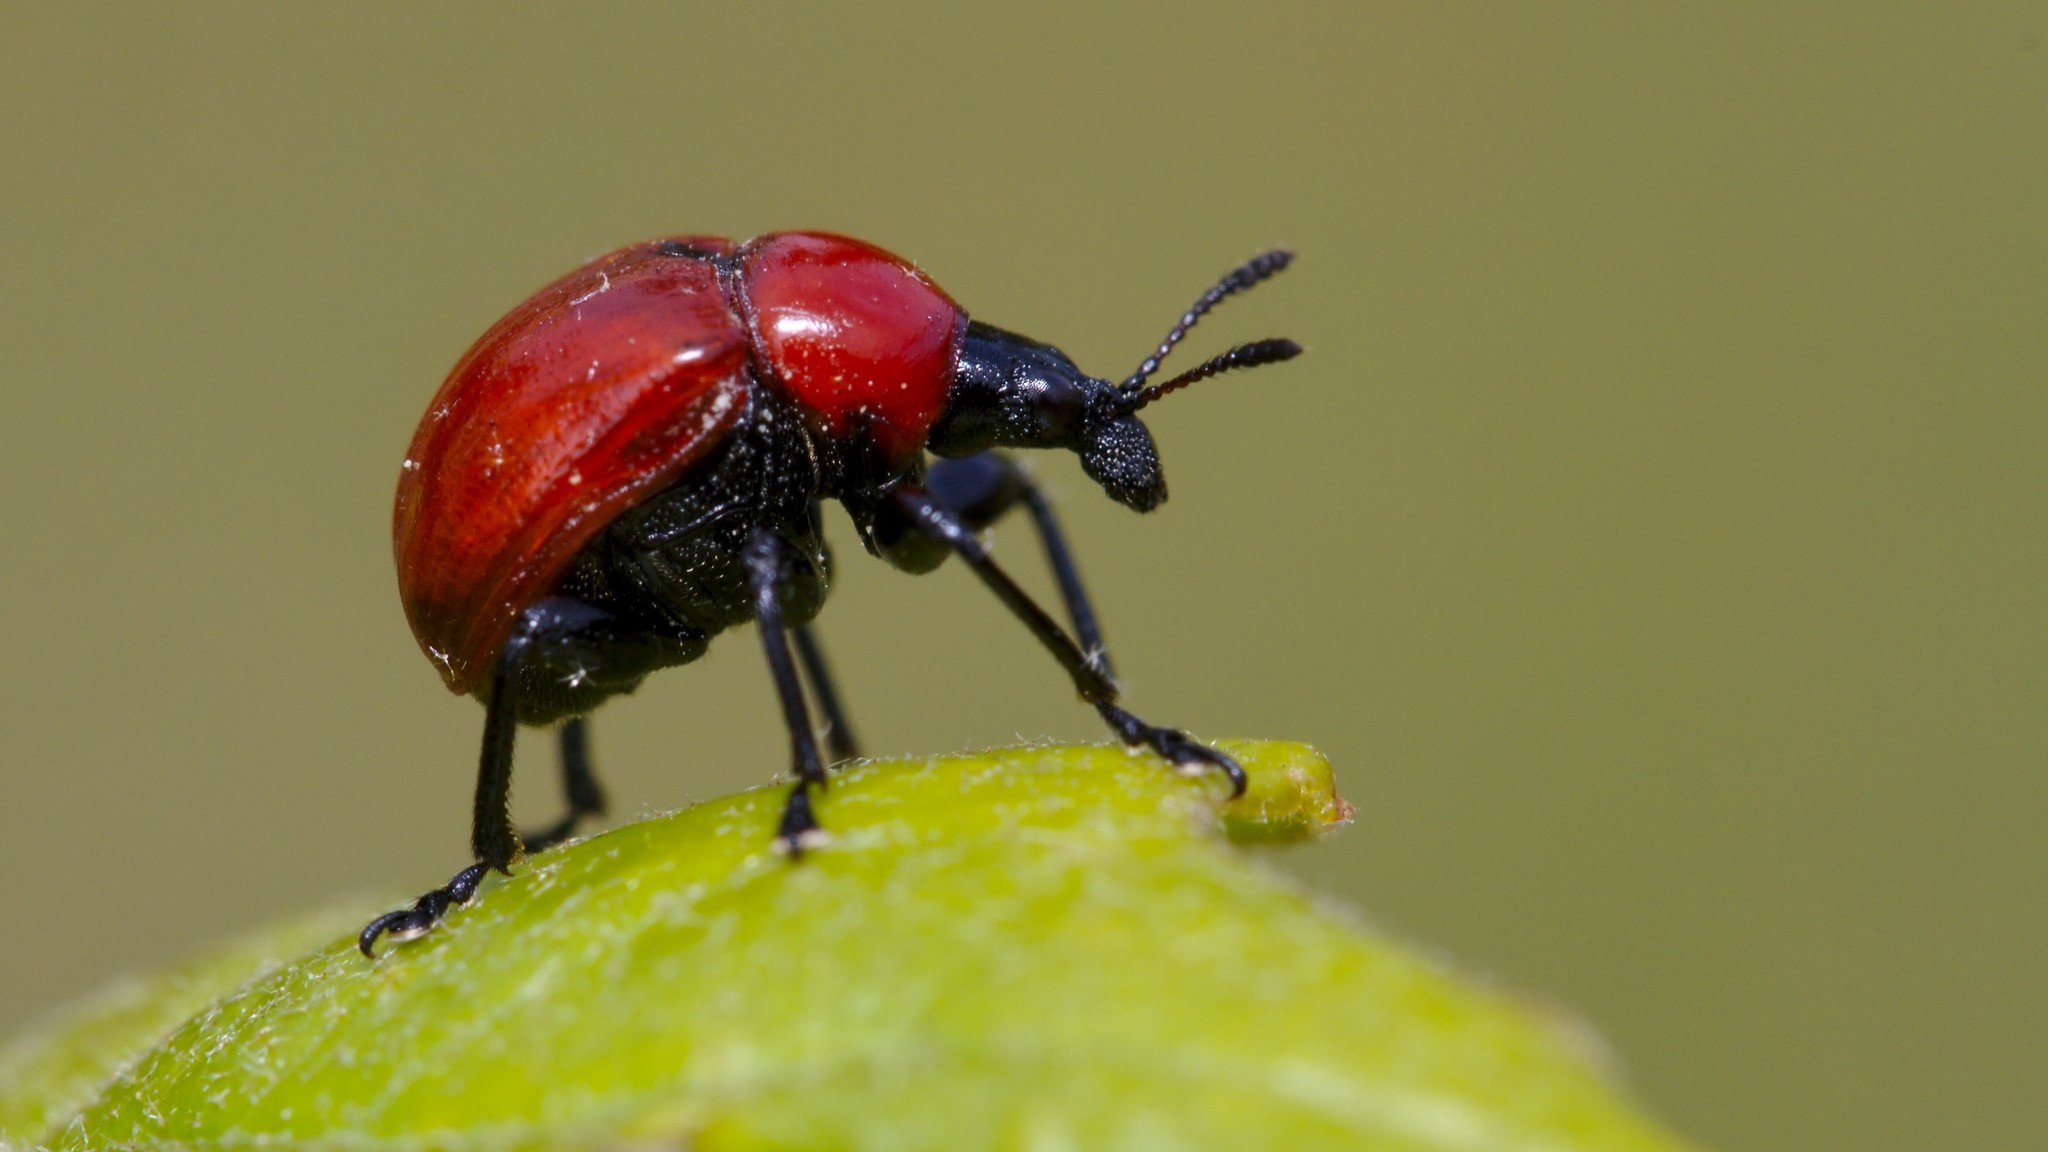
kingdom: Animalia
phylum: Arthropoda
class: Insecta
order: Coleoptera
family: Attelabidae
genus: Attelabus
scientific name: Attelabus nitens
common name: Oak leaf-roller
